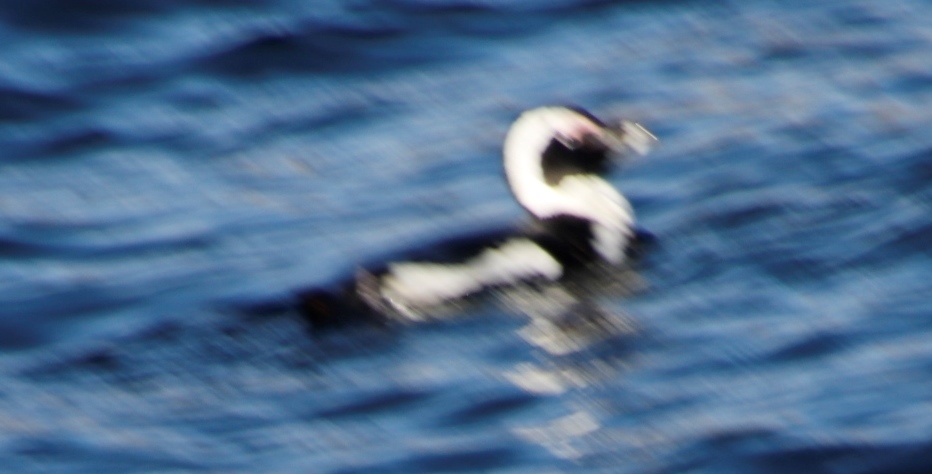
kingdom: Animalia
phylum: Chordata
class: Aves
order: Sphenisciformes
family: Spheniscidae
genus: Spheniscus
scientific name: Spheniscus demersus
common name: African penguin
